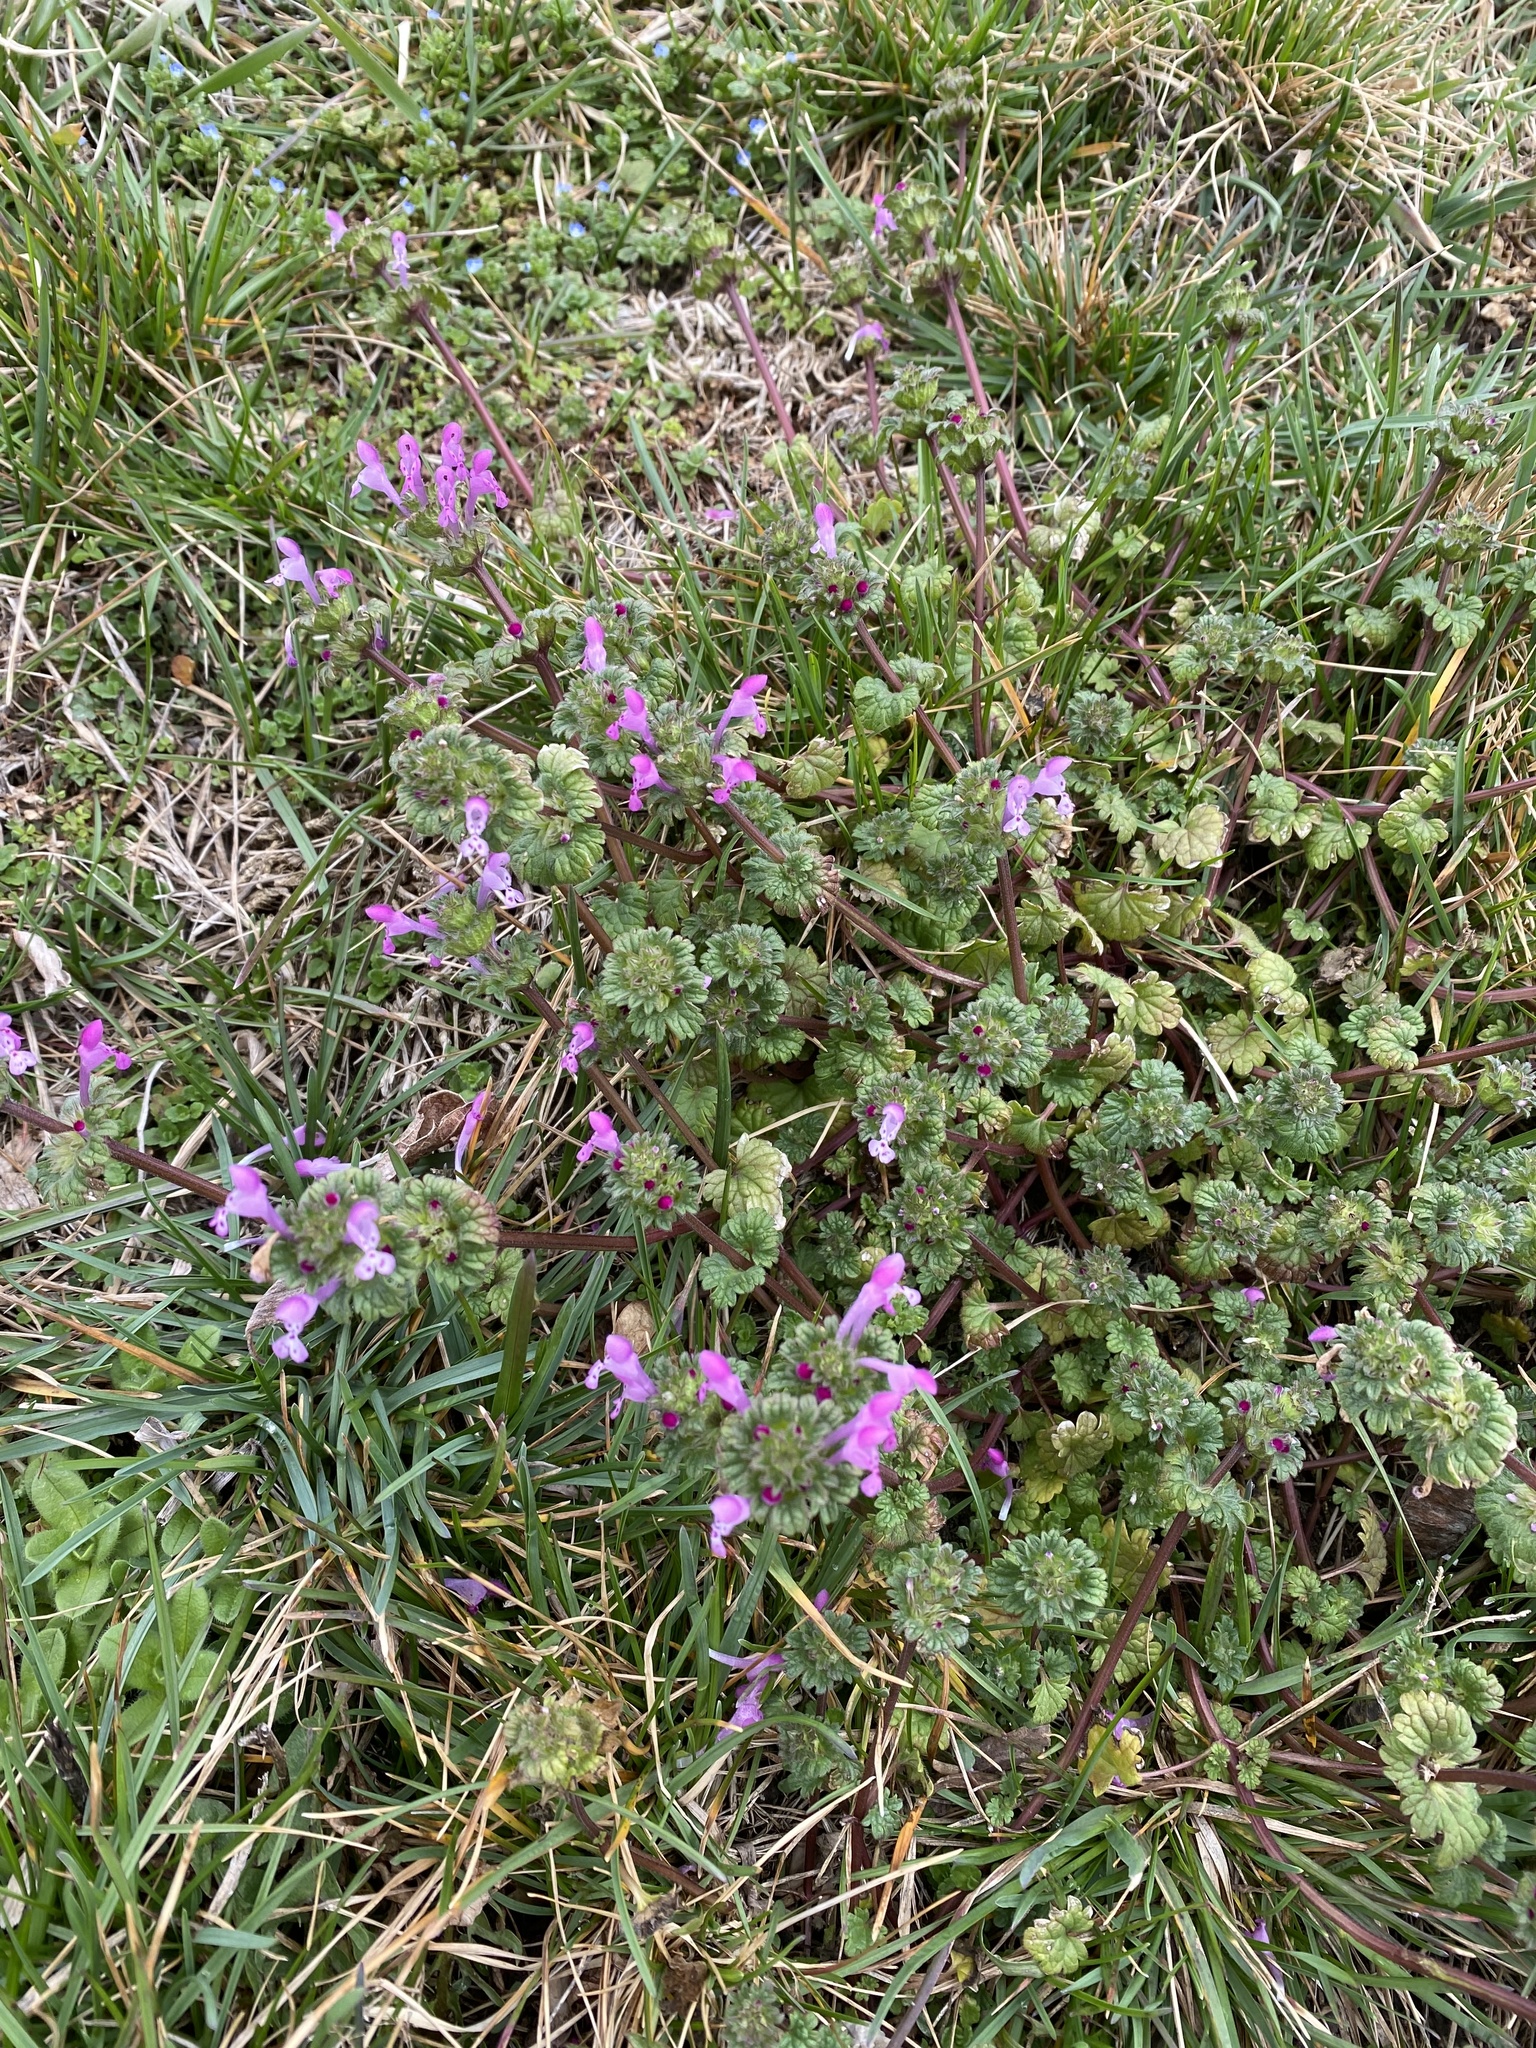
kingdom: Plantae
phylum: Tracheophyta
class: Magnoliopsida
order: Lamiales
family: Lamiaceae
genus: Lamium
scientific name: Lamium amplexicaule
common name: Henbit dead-nettle
